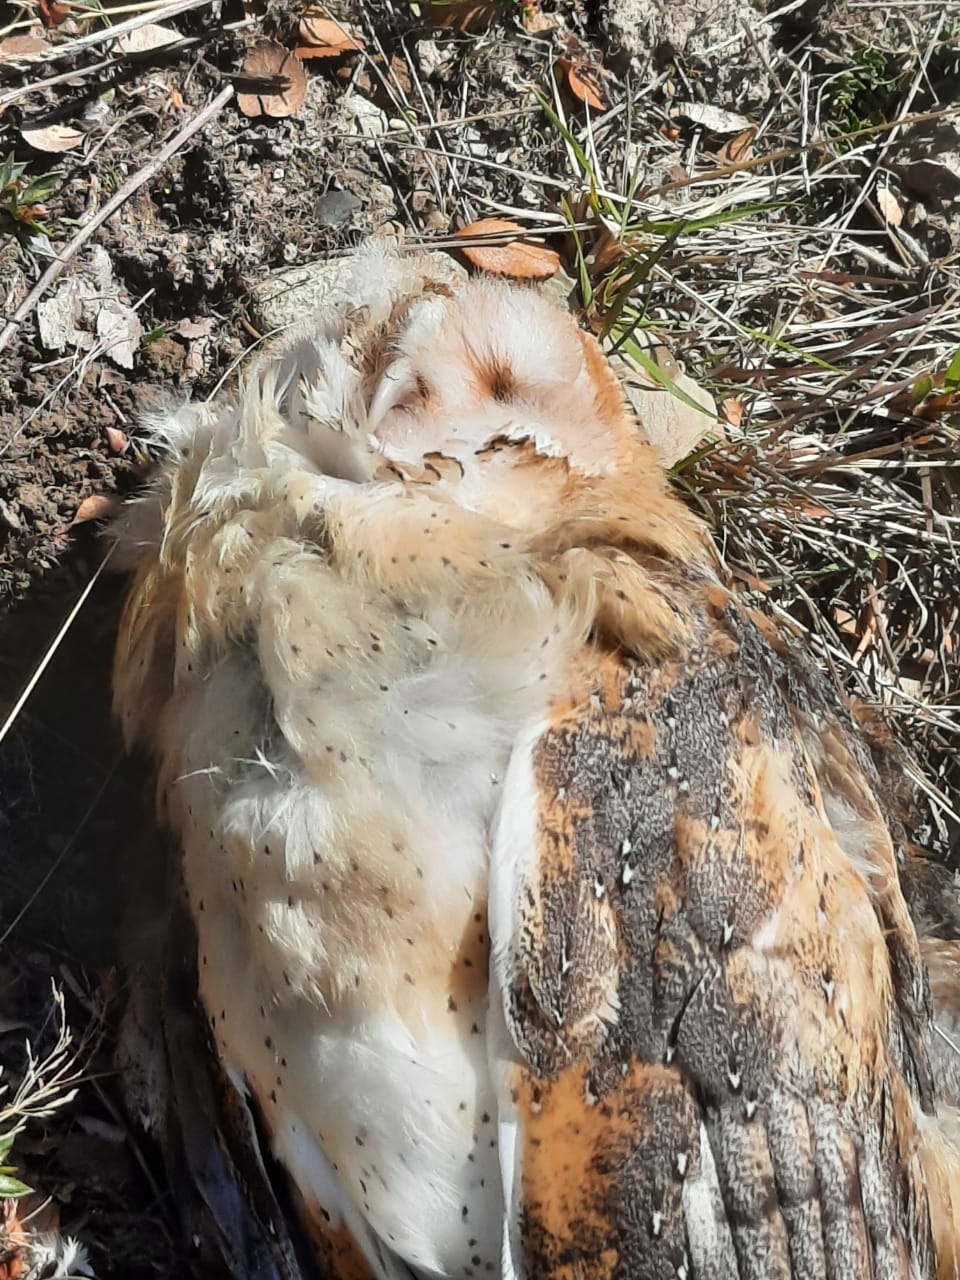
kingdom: Animalia
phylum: Chordata
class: Aves
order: Strigiformes
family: Tytonidae
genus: Tyto
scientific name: Tyto alba
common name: Barn owl
